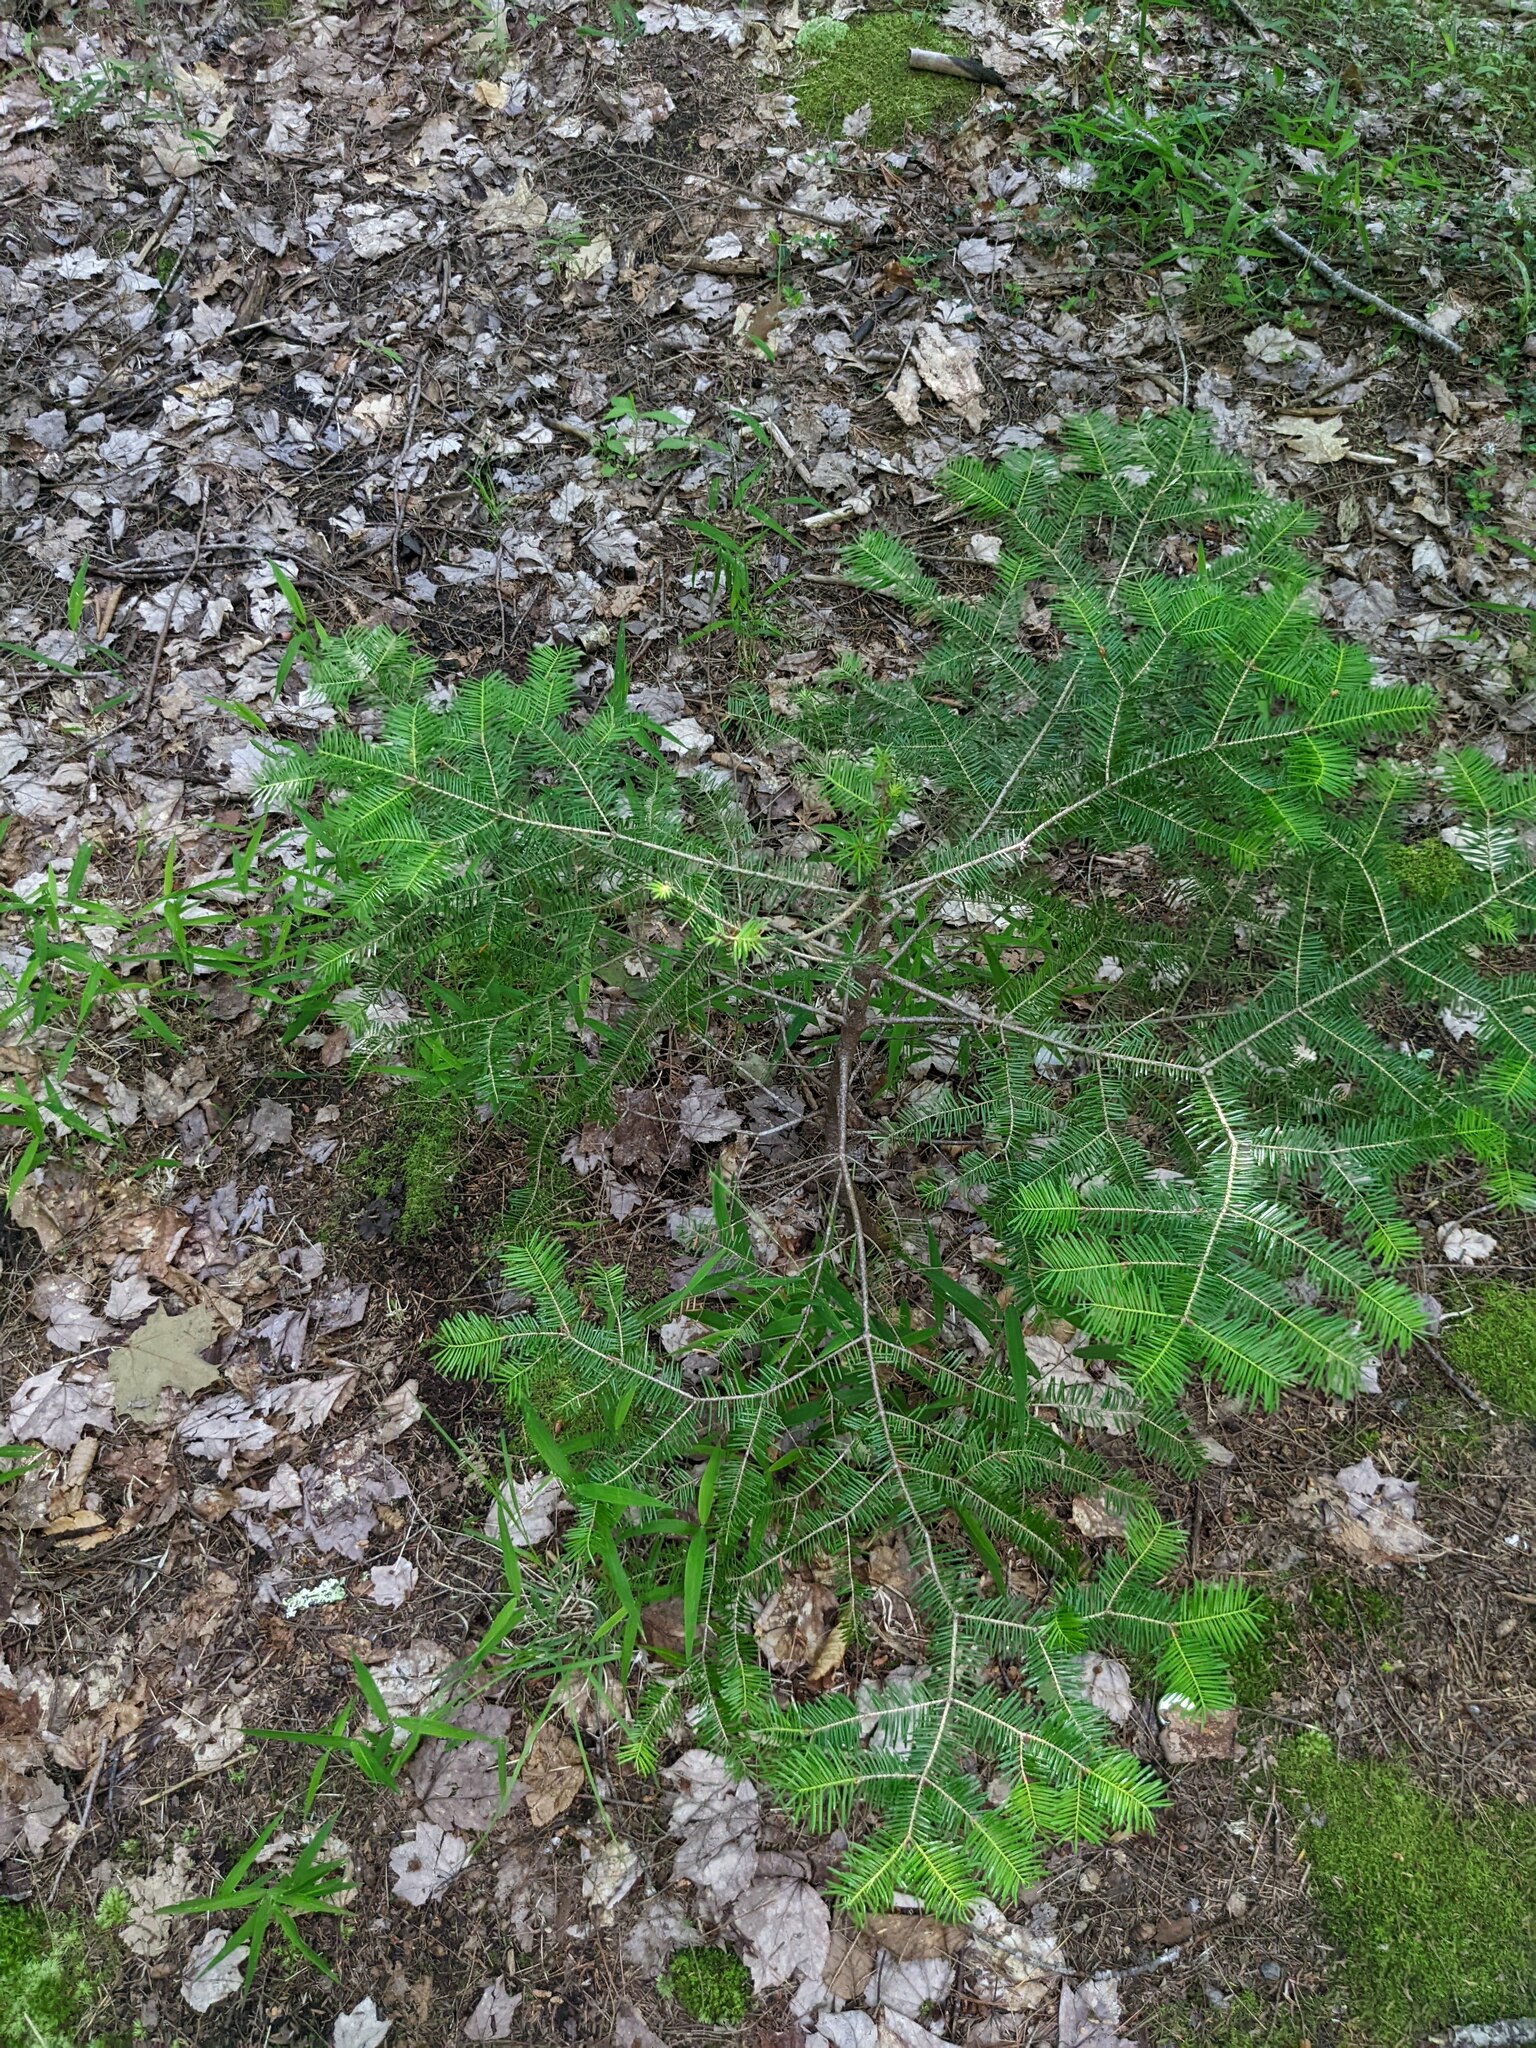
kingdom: Plantae
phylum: Tracheophyta
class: Pinopsida
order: Pinales
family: Pinaceae
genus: Abies
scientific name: Abies balsamea
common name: Balsam fir
